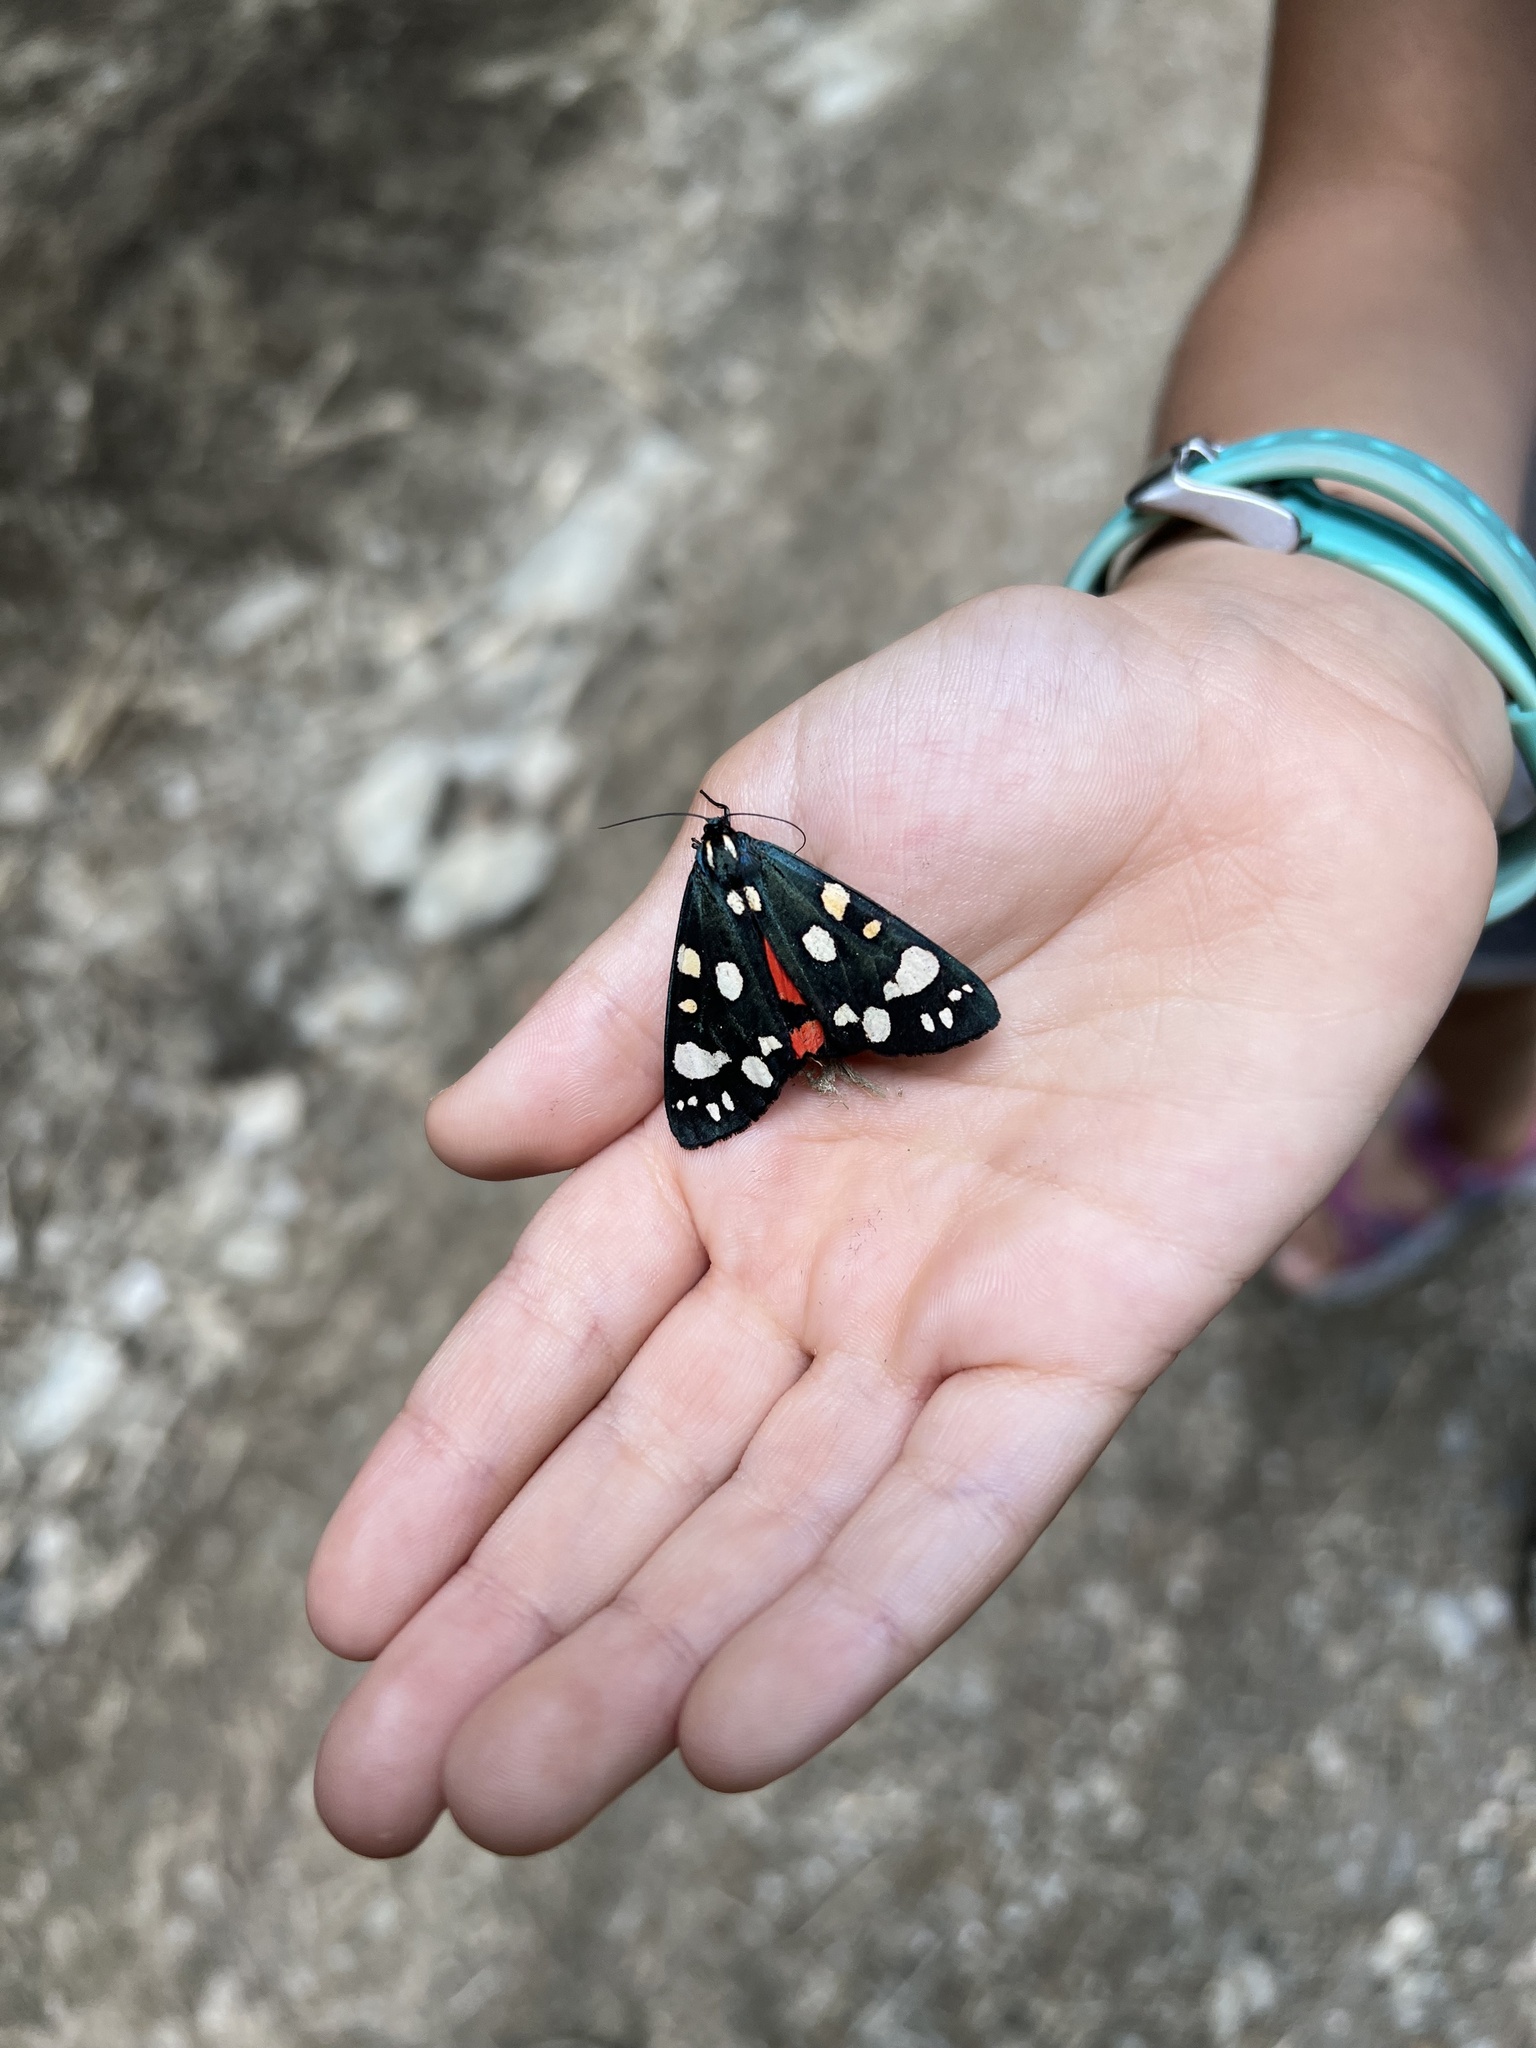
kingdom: Animalia
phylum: Arthropoda
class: Insecta
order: Lepidoptera
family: Erebidae
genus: Callimorpha
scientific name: Callimorpha dominula
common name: Scarlet tiger
